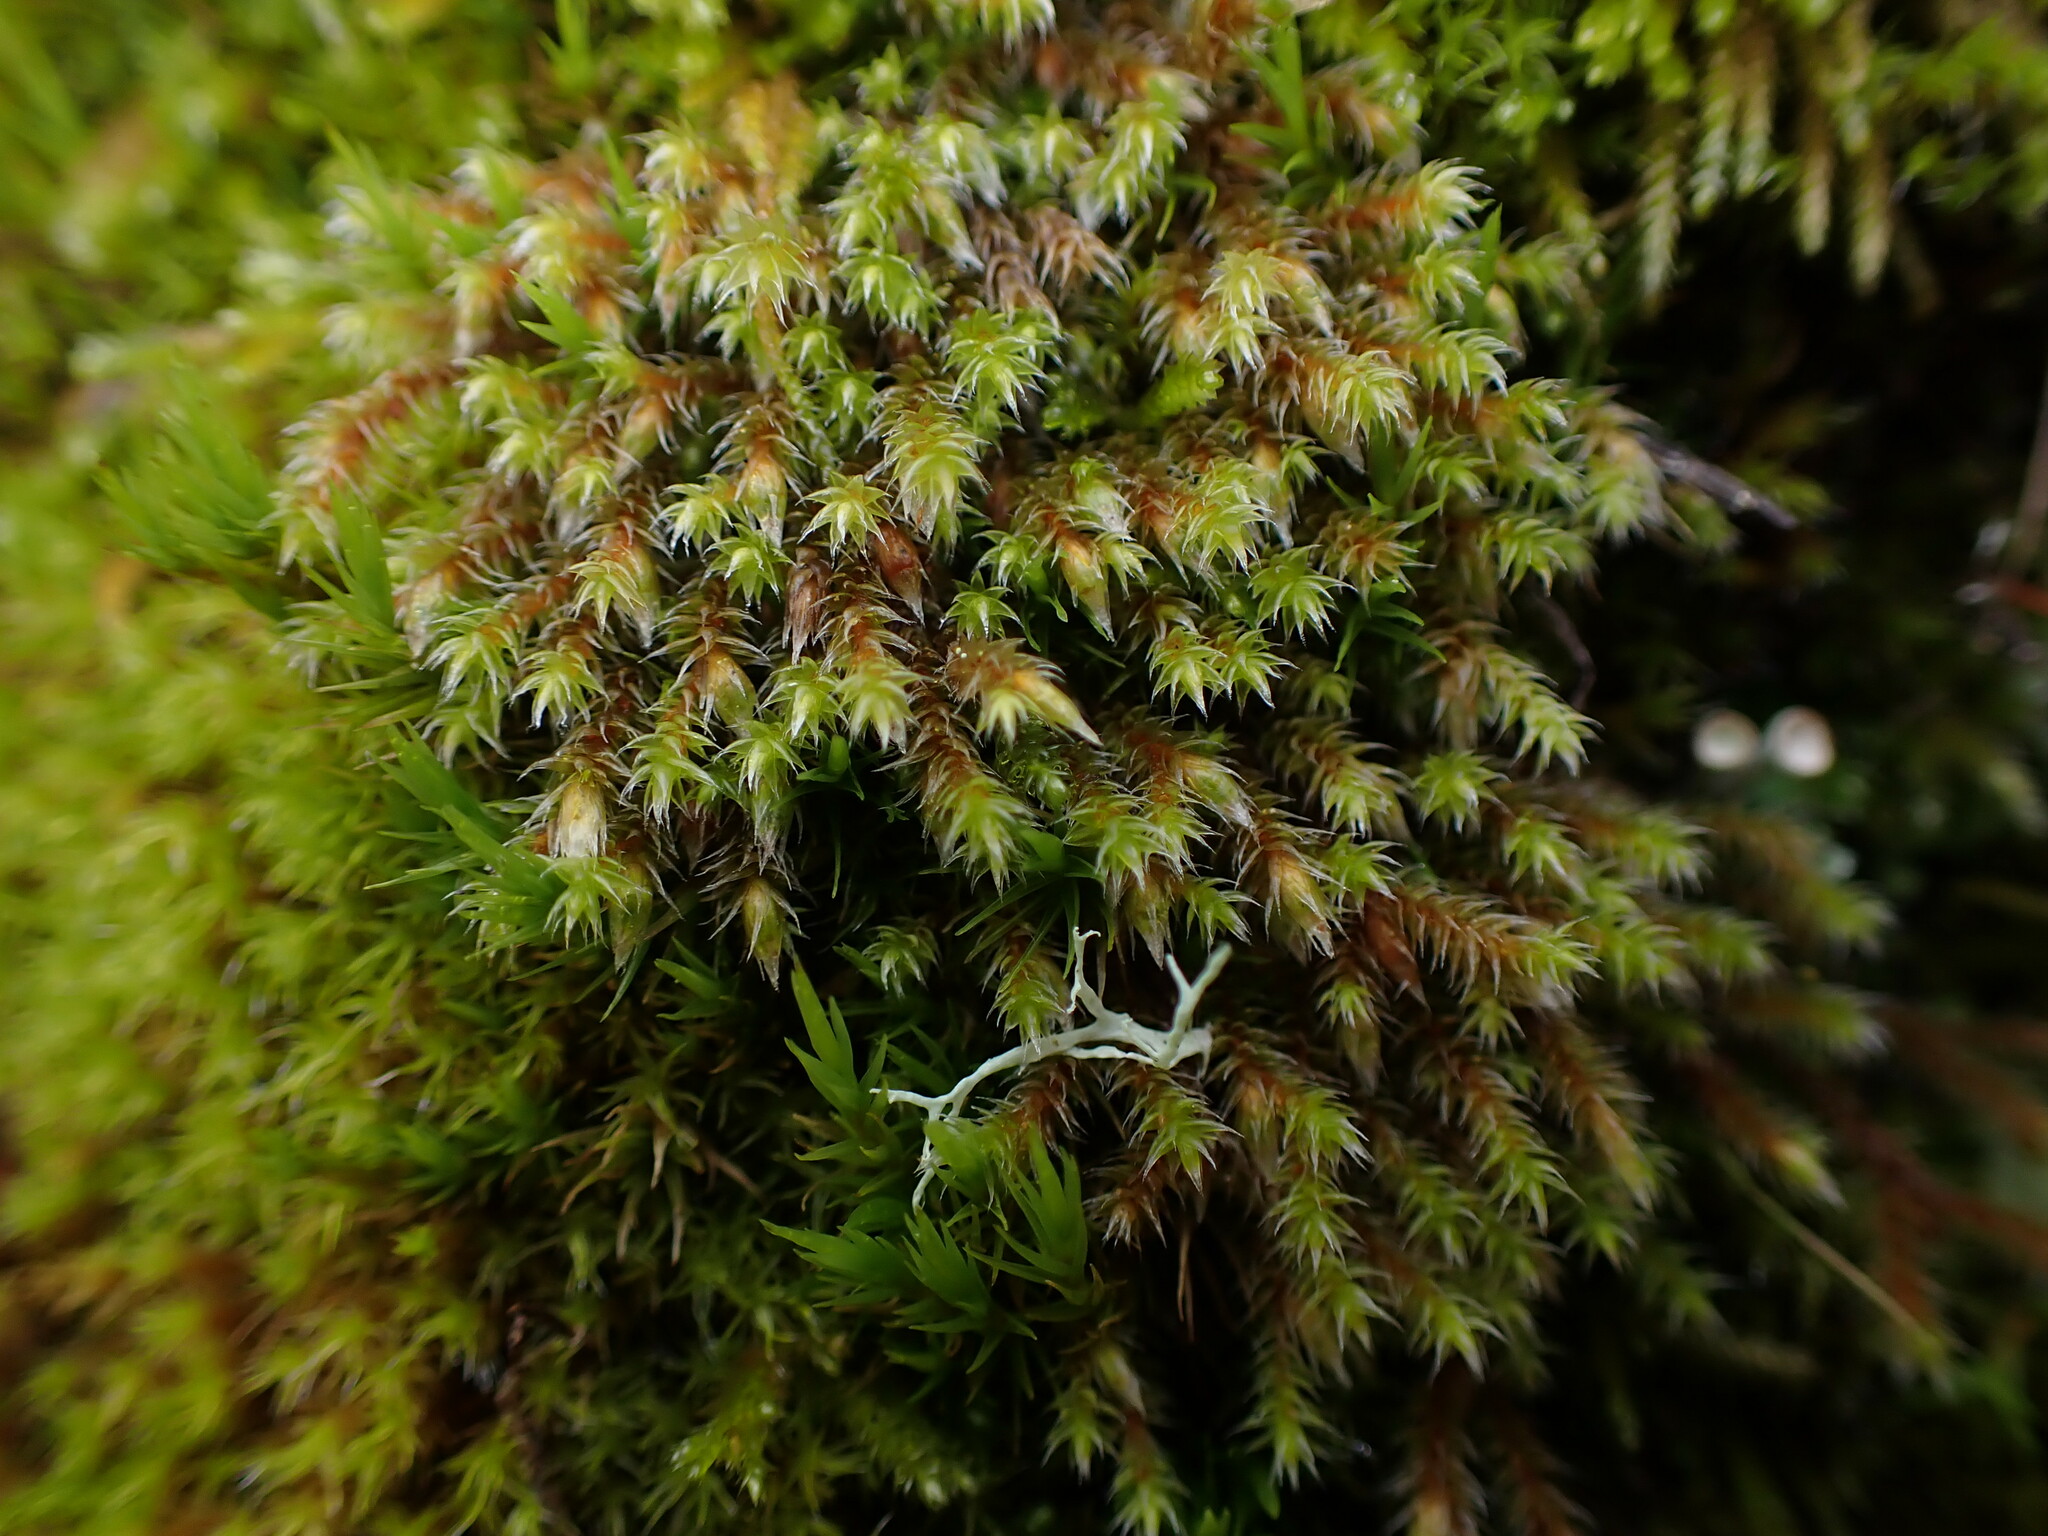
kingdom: Plantae
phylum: Bryophyta
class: Bryopsida
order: Hedwigiales
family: Hedwigiaceae
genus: Hedwigia
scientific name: Hedwigia stellata
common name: Starry hoar-moss
